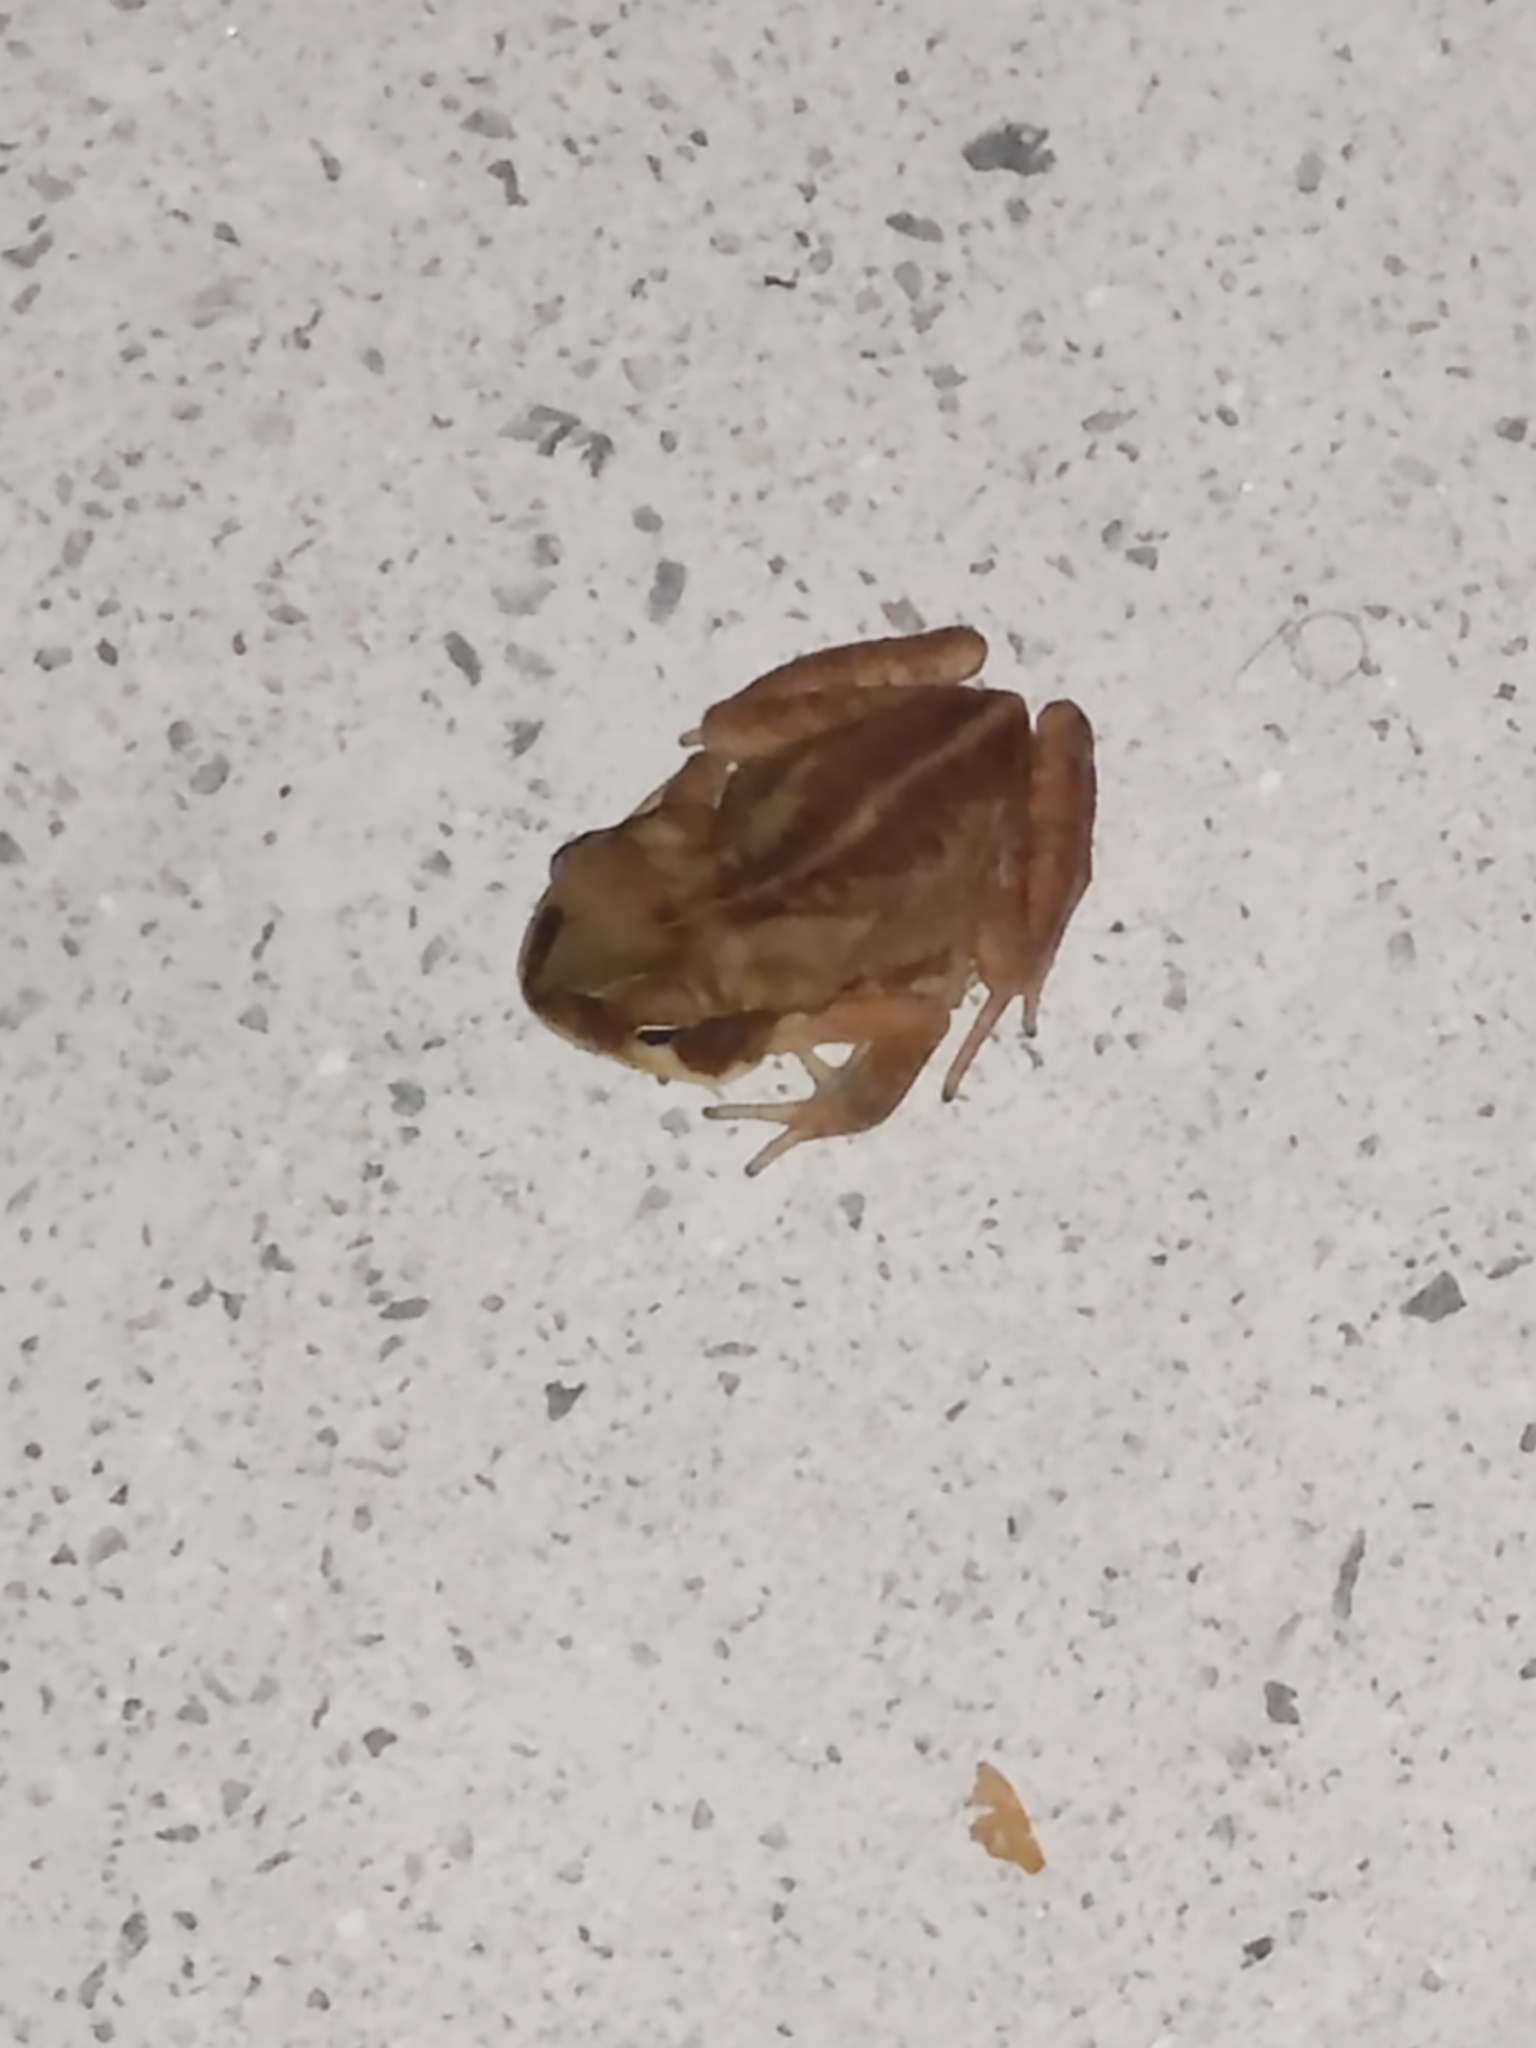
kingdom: Animalia
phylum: Chordata
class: Amphibia
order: Anura
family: Bufonidae
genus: Rhinella
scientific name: Rhinella ornata
